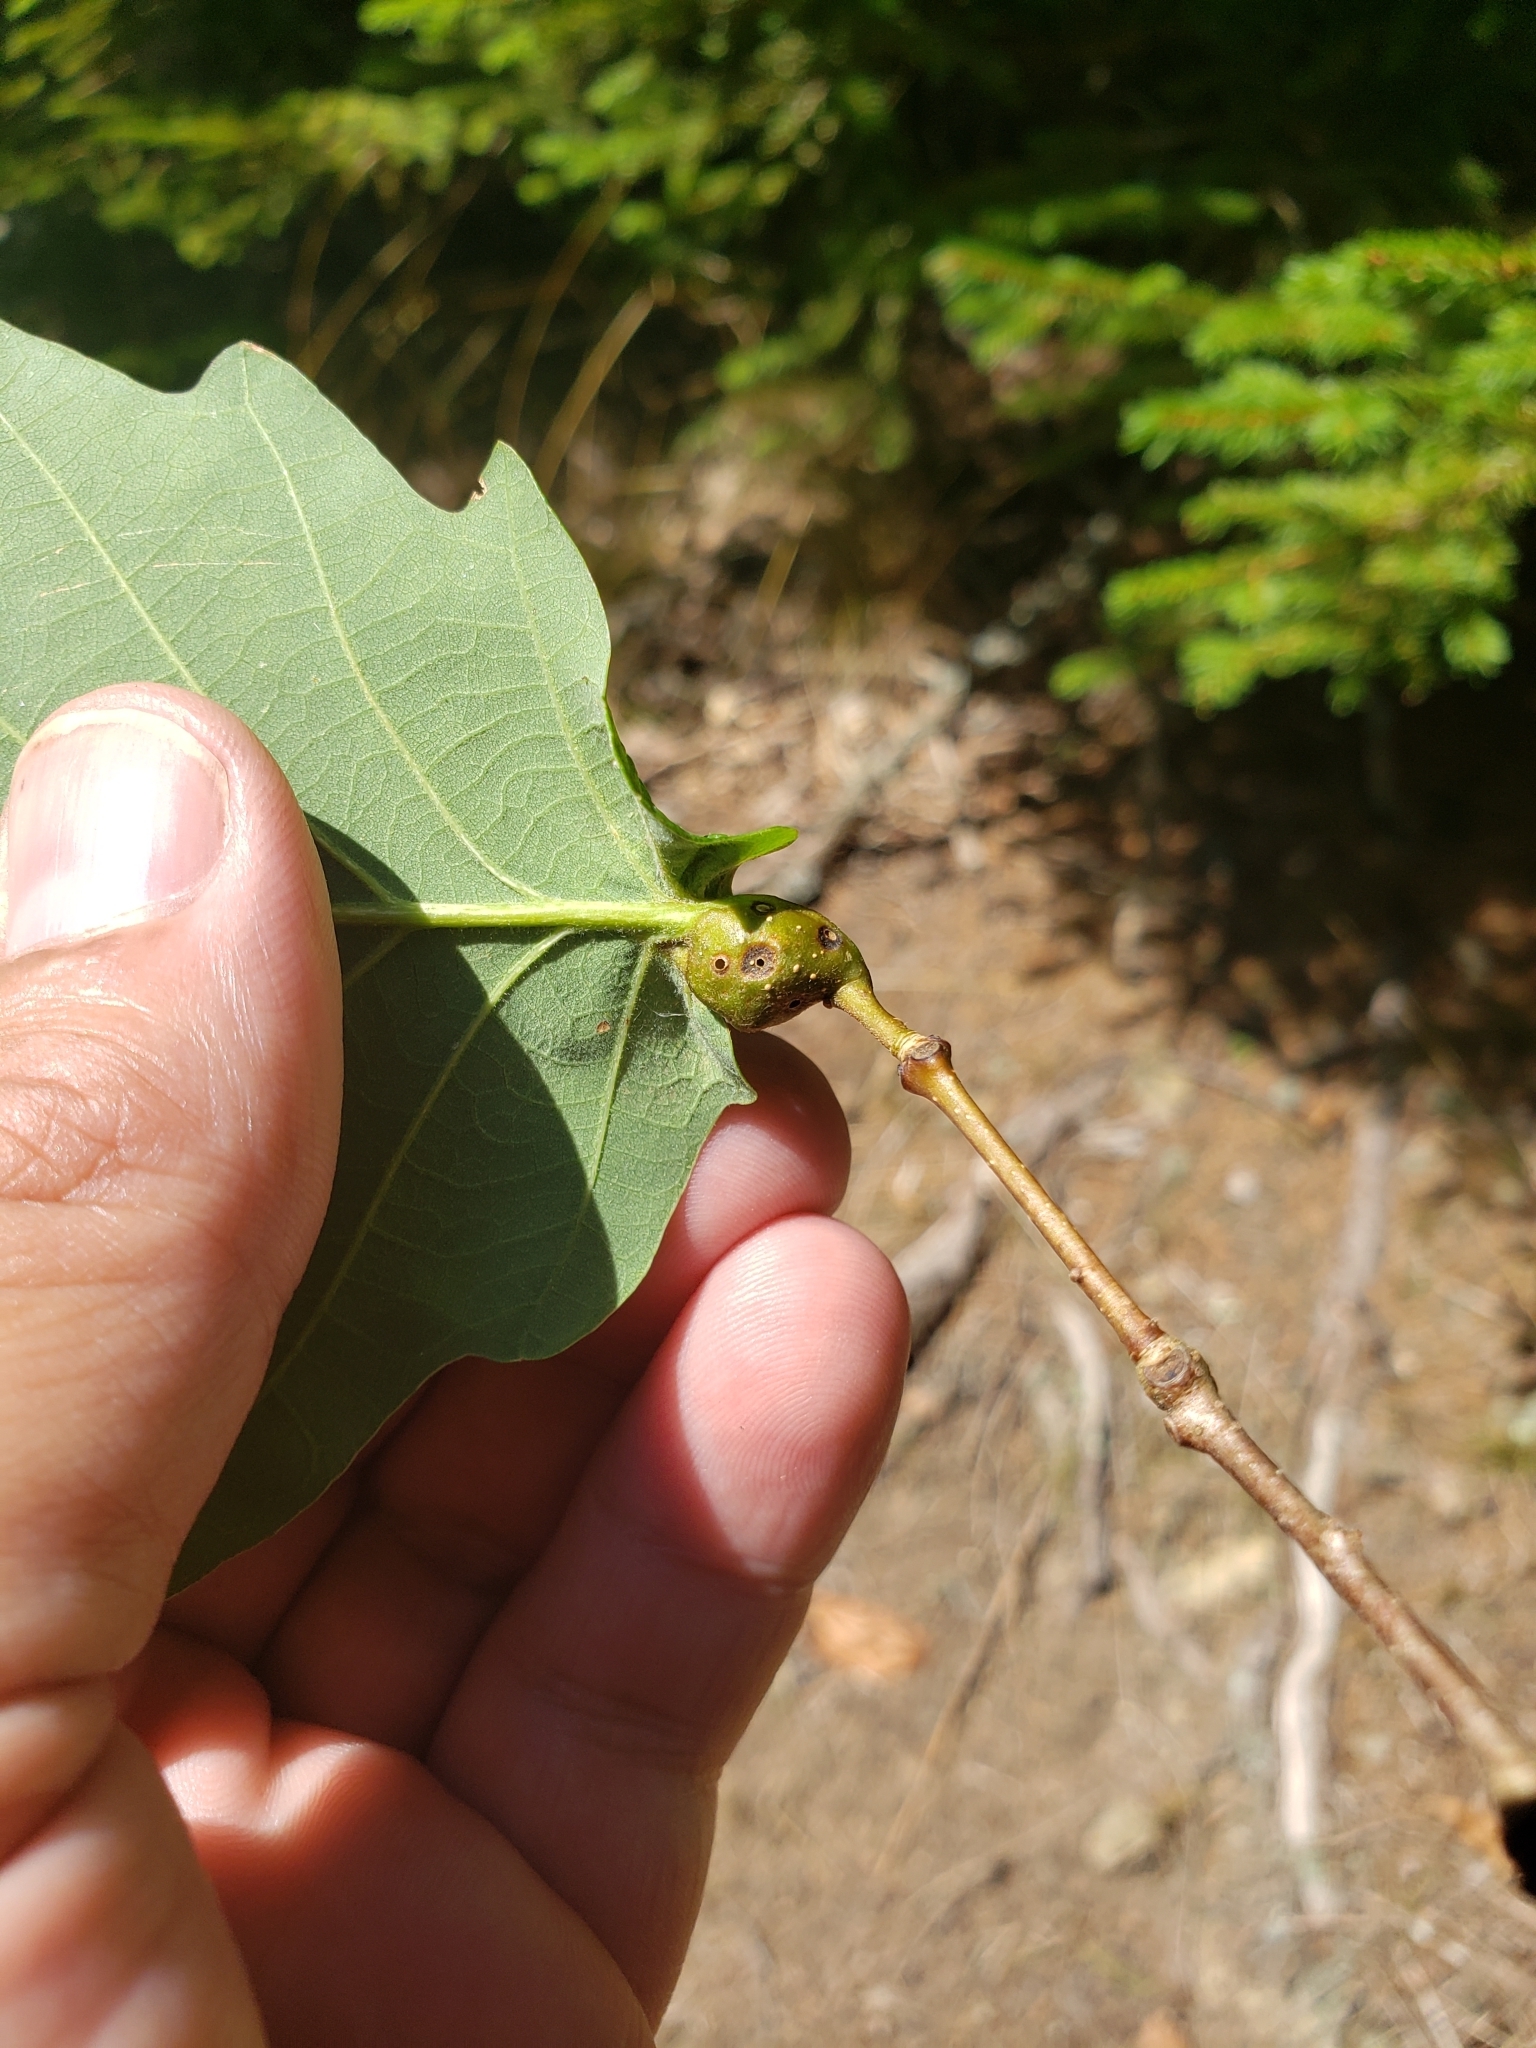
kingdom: Animalia
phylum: Arthropoda
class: Insecta
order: Hymenoptera
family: Cynipidae
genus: Andricus
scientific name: Andricus
